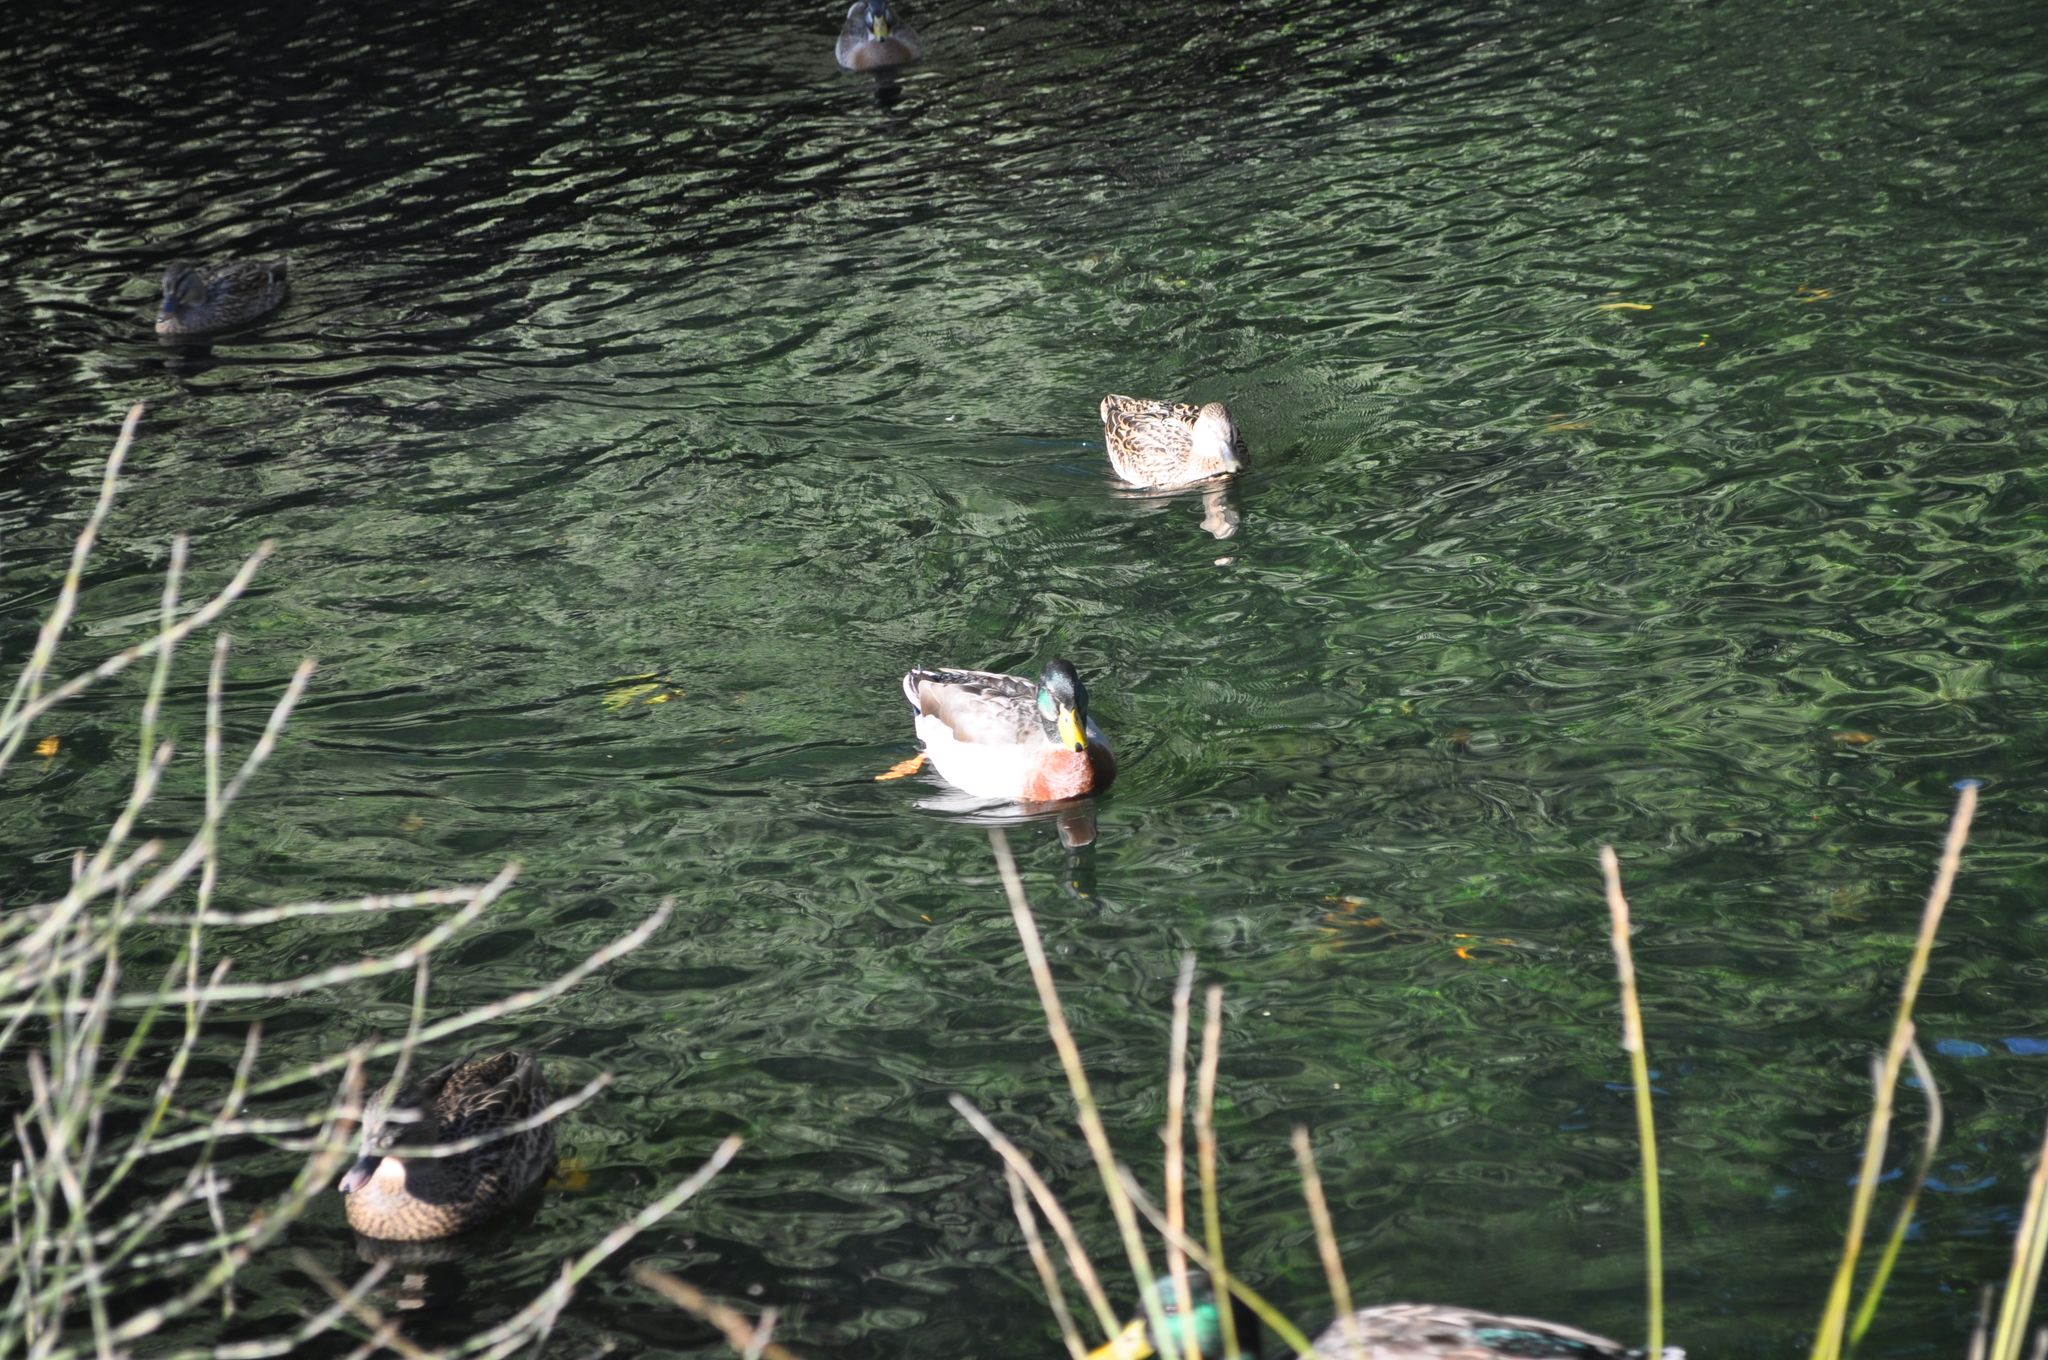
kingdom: Animalia
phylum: Chordata
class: Aves
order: Anseriformes
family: Anatidae
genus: Anas
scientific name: Anas platyrhynchos
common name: Mallard
